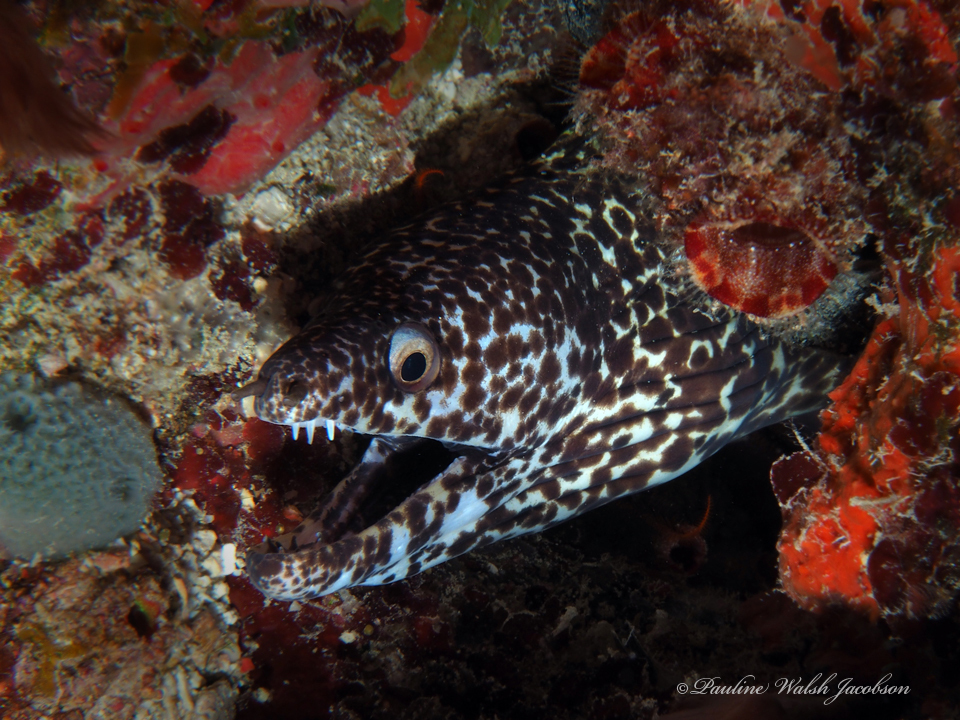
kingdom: Animalia
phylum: Chordata
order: Anguilliformes
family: Muraenidae
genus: Gymnothorax
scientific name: Gymnothorax moringa
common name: Spotted moray
